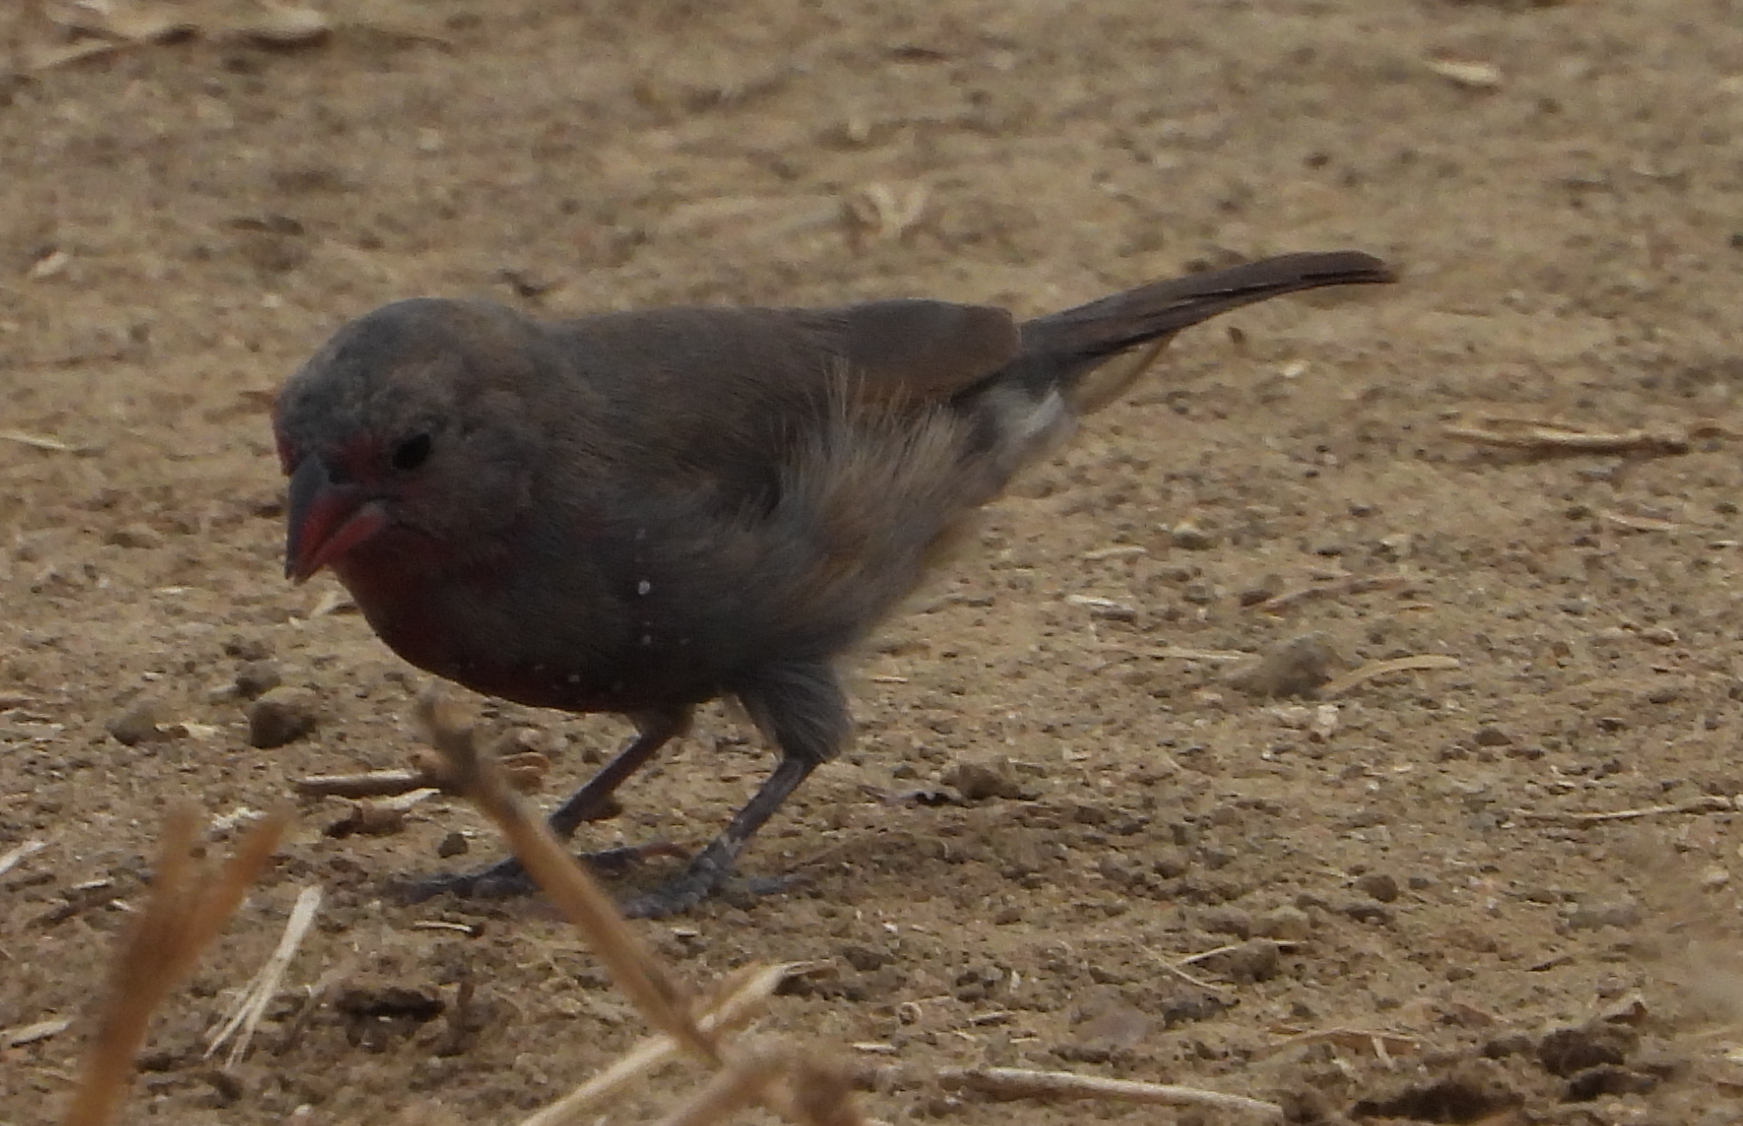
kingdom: Animalia
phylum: Chordata
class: Aves
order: Passeriformes
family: Estrildidae
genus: Lagonosticta
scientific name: Lagonosticta nitidula
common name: Brown firefinch
